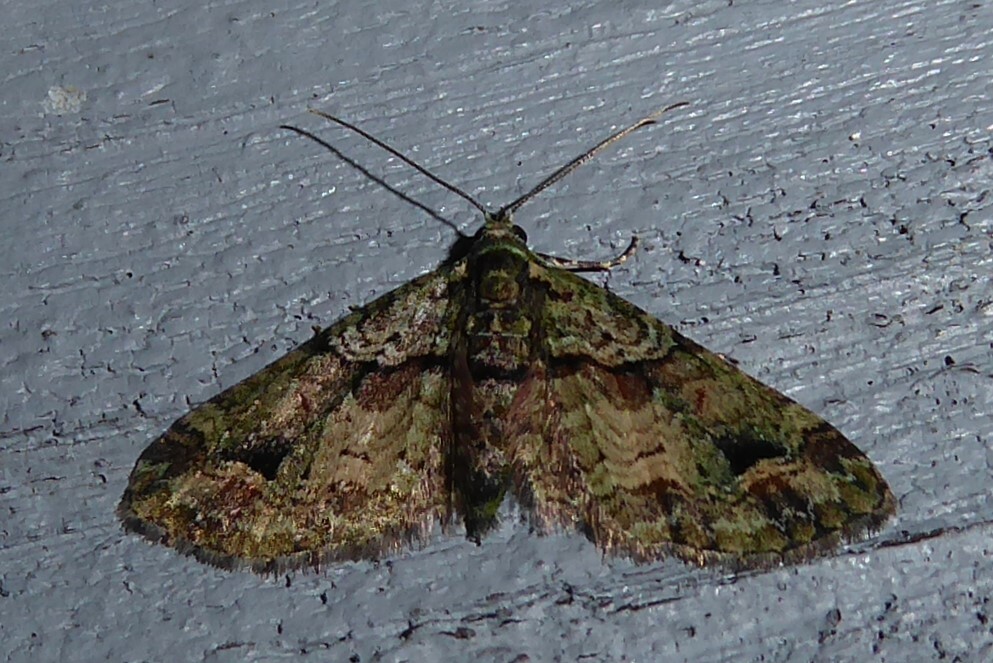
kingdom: Animalia
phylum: Arthropoda
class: Insecta
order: Lepidoptera
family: Geometridae
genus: Idaea
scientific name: Idaea mutanda
